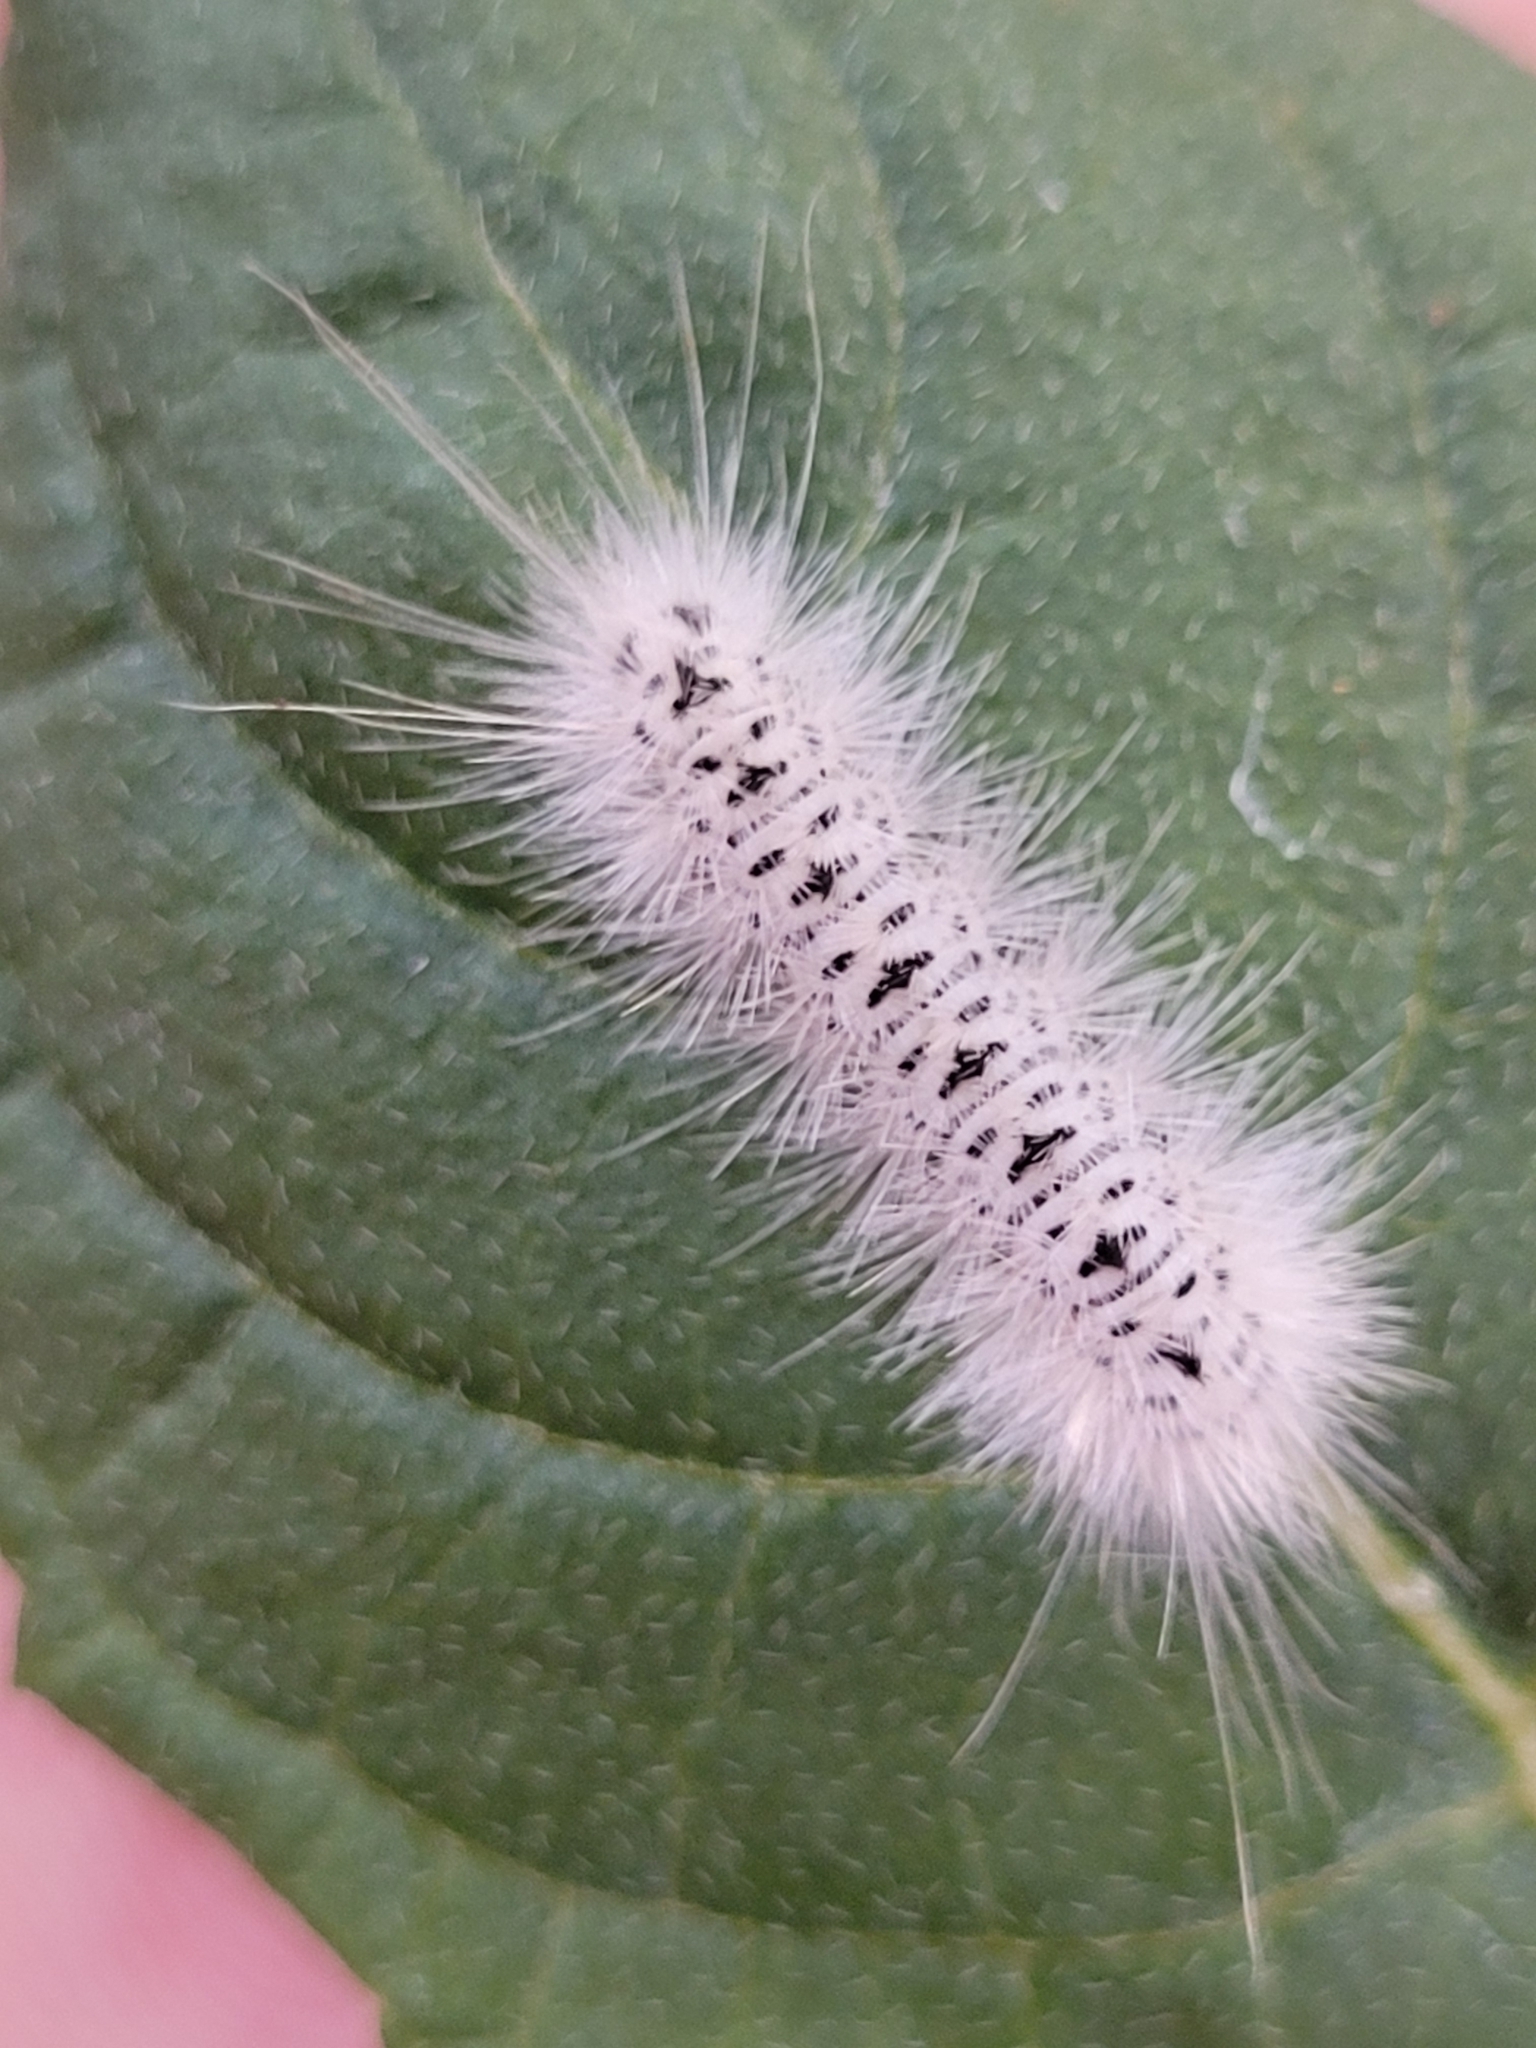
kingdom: Animalia
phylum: Arthropoda
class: Insecta
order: Lepidoptera
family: Erebidae
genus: Lophocampa
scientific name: Lophocampa caryae
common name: Hickory tussock moth
